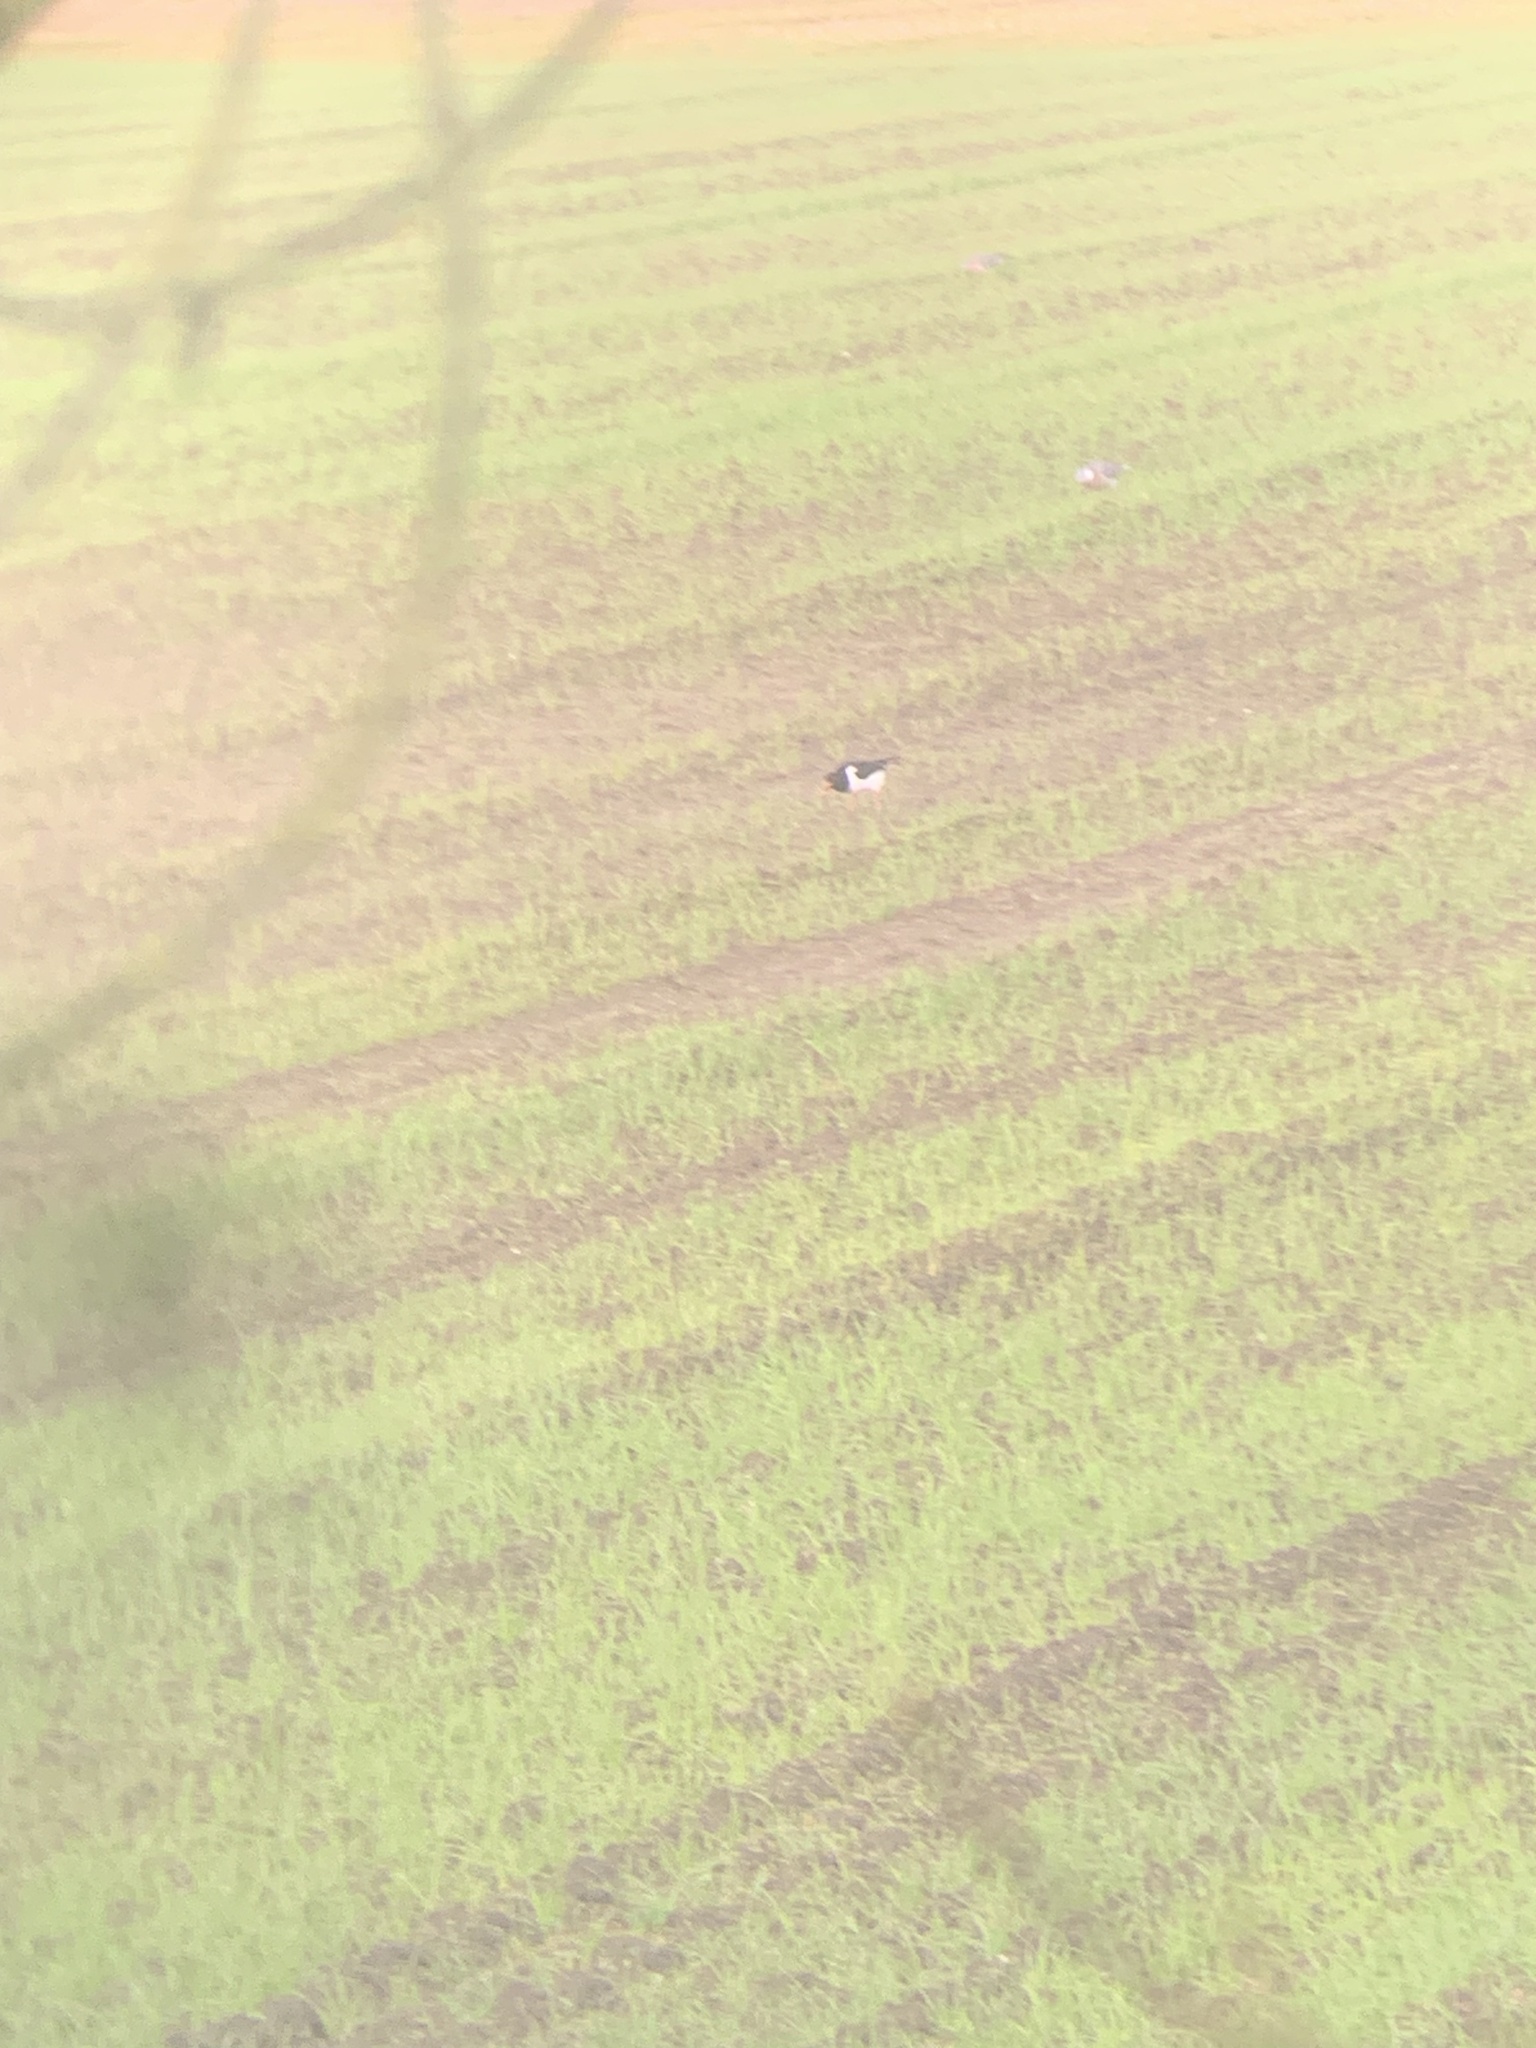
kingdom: Animalia
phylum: Chordata
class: Aves
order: Charadriiformes
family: Haematopodidae
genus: Haematopus
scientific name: Haematopus ostralegus
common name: Eurasian oystercatcher
